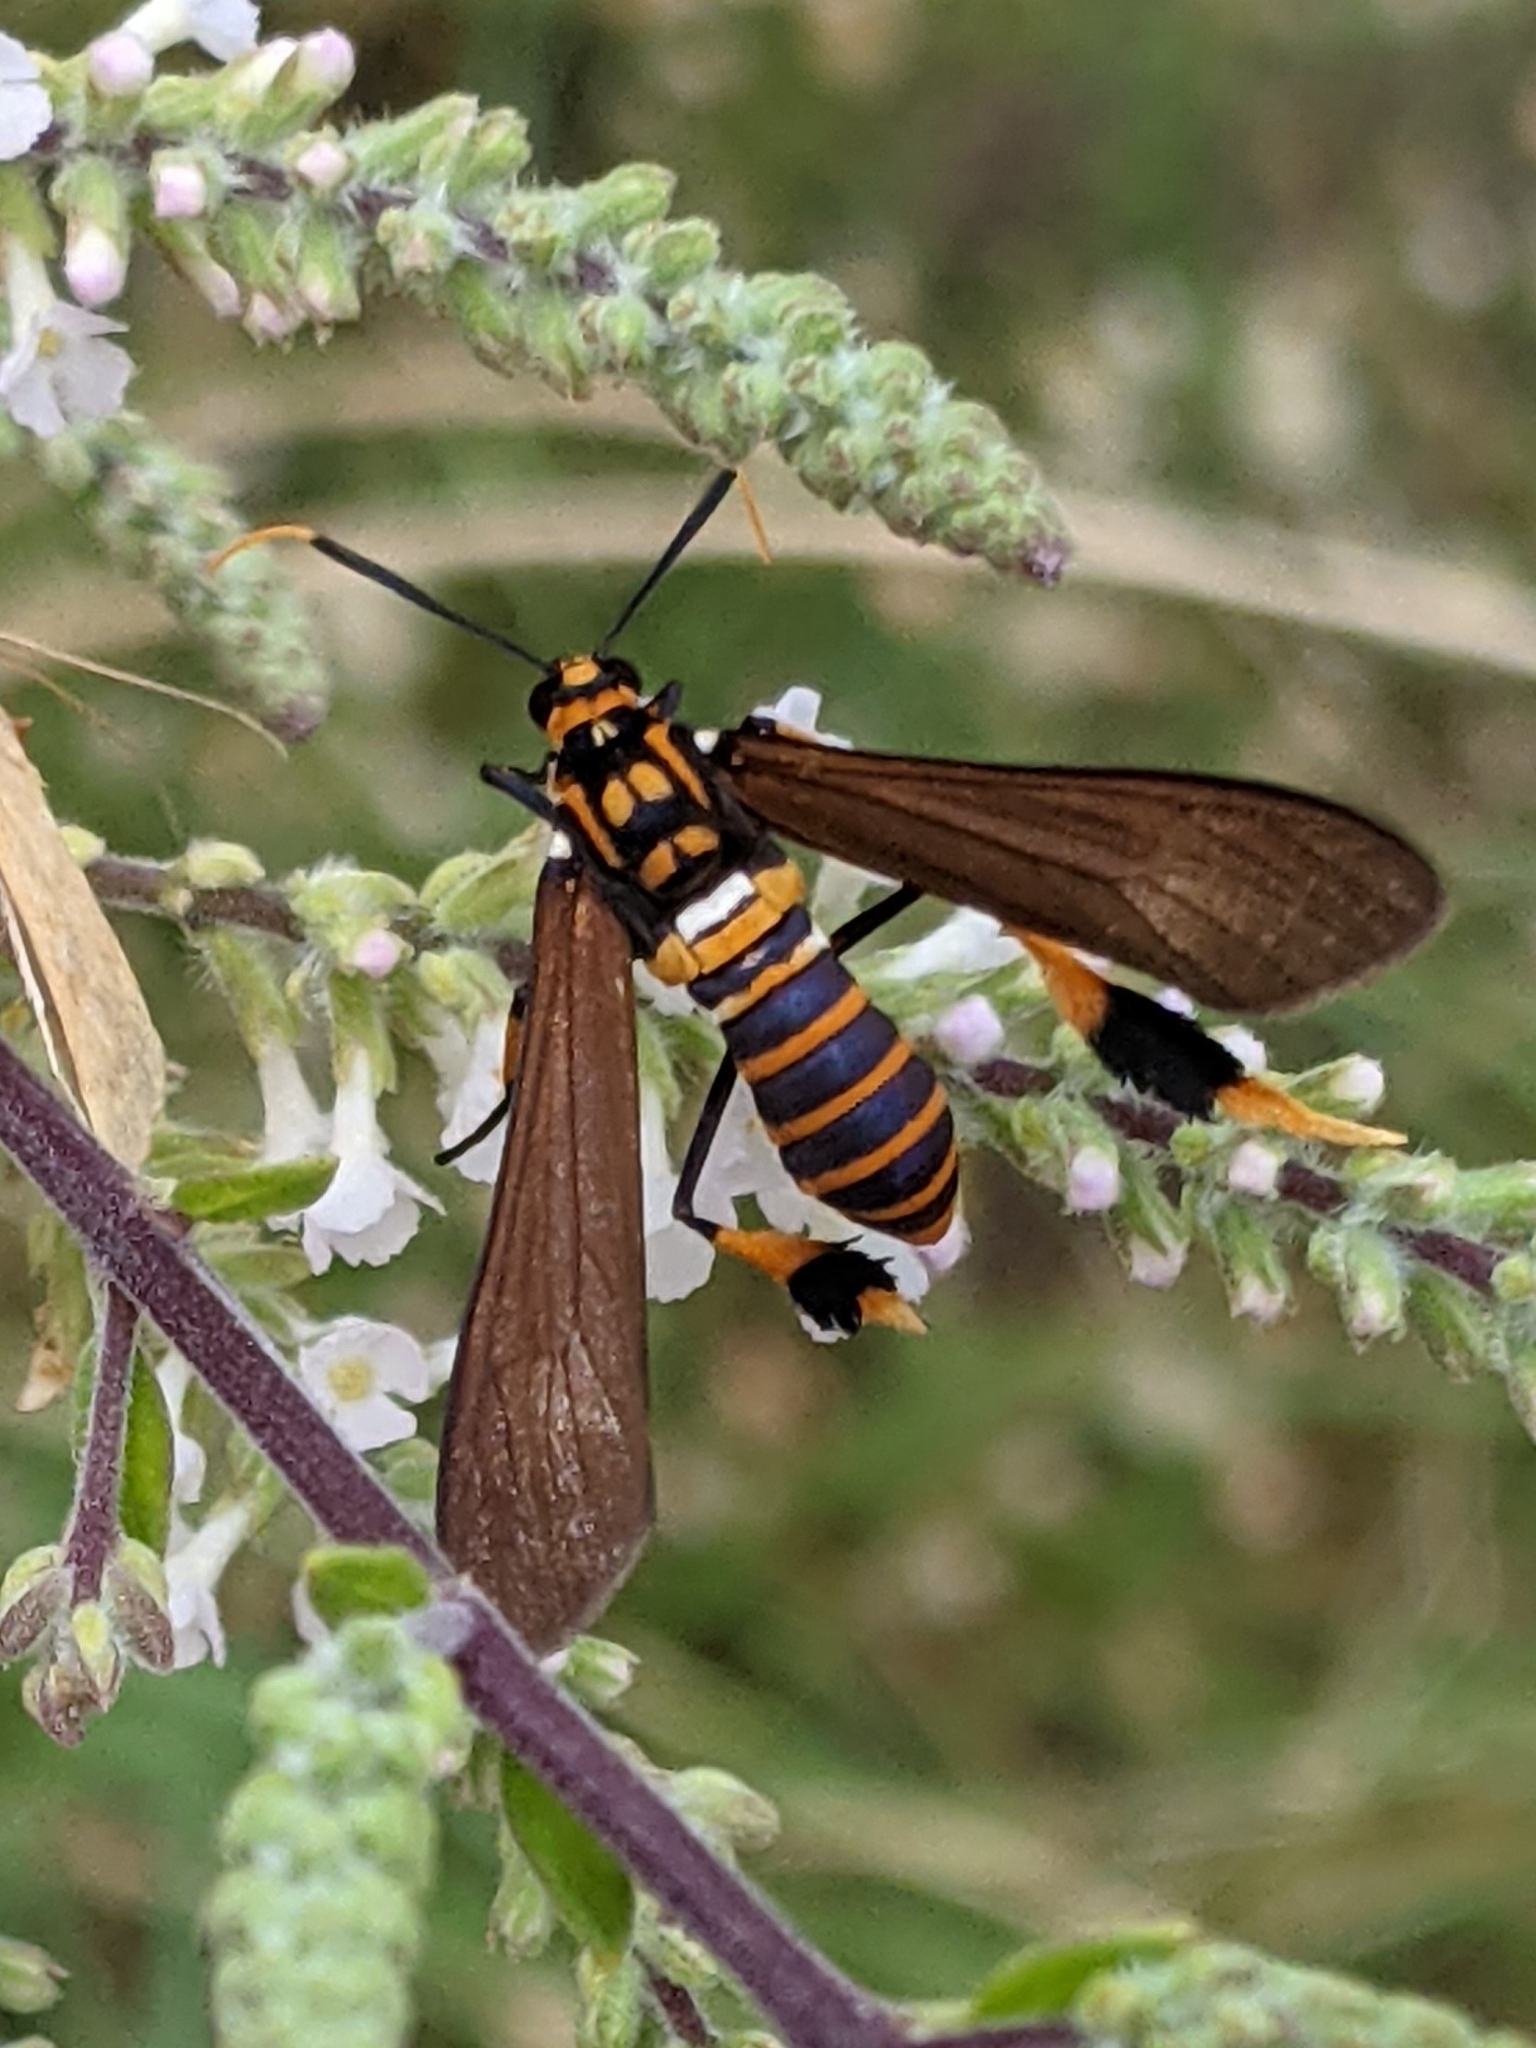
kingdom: Animalia
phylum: Arthropoda
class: Insecta
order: Lepidoptera
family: Erebidae
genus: Horama
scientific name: Horama panthalon
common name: Texas wasp moth
